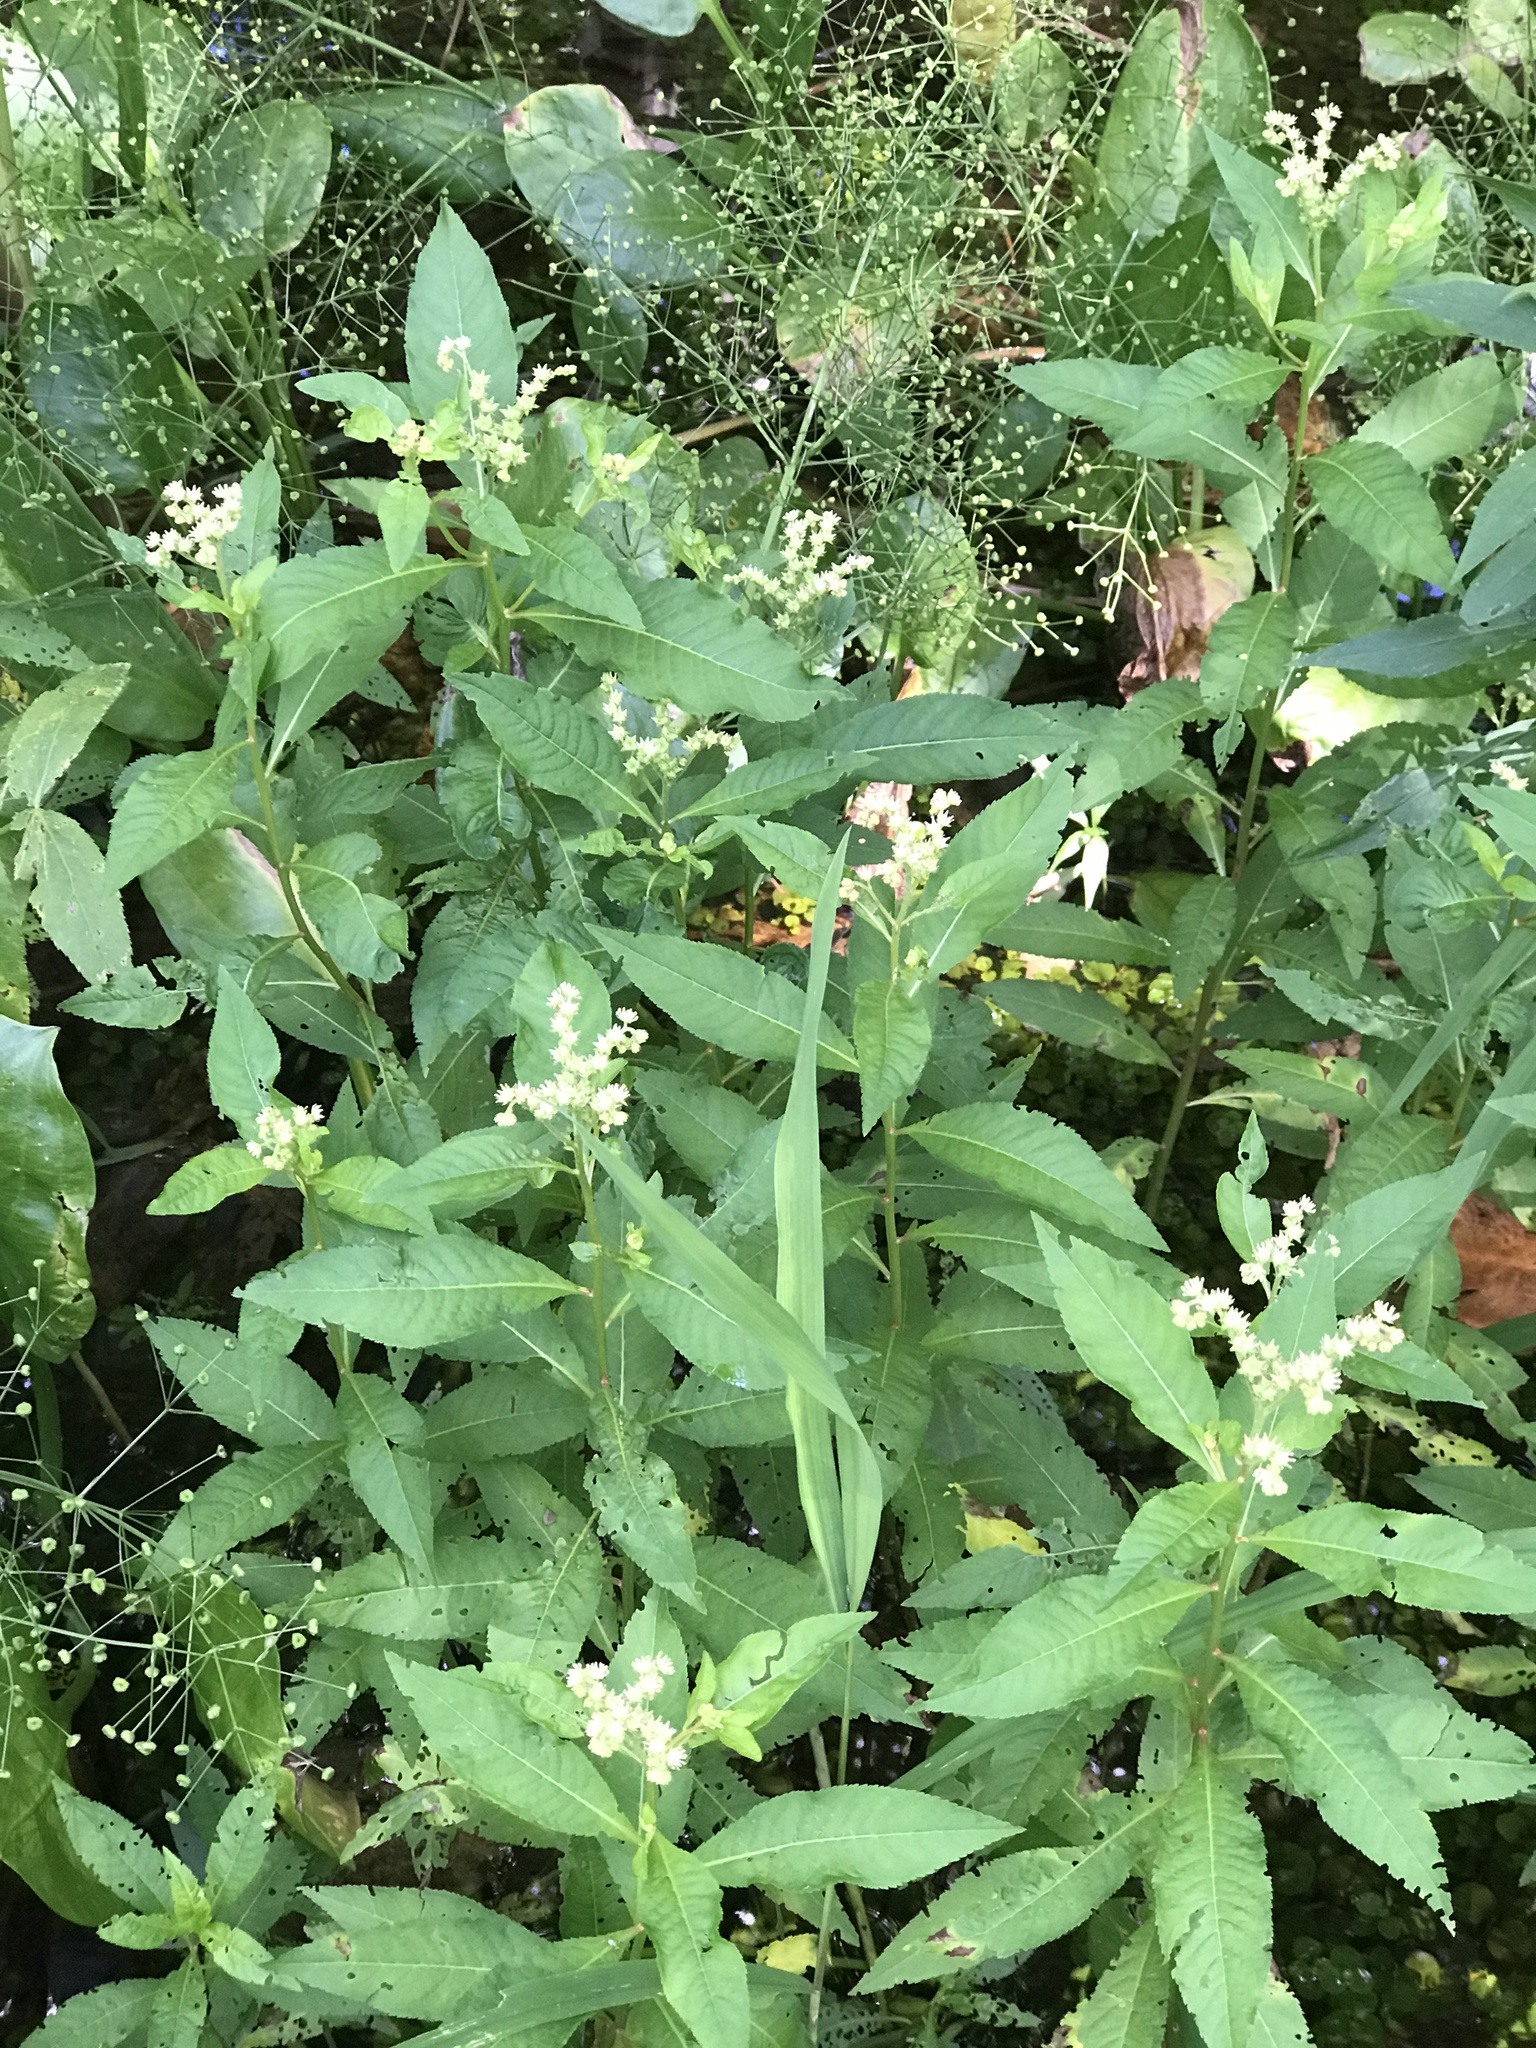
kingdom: Plantae
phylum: Tracheophyta
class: Magnoliopsida
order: Saxifragales
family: Penthoraceae
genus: Penthorum
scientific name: Penthorum sedoides
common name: Ditch stonecrop
